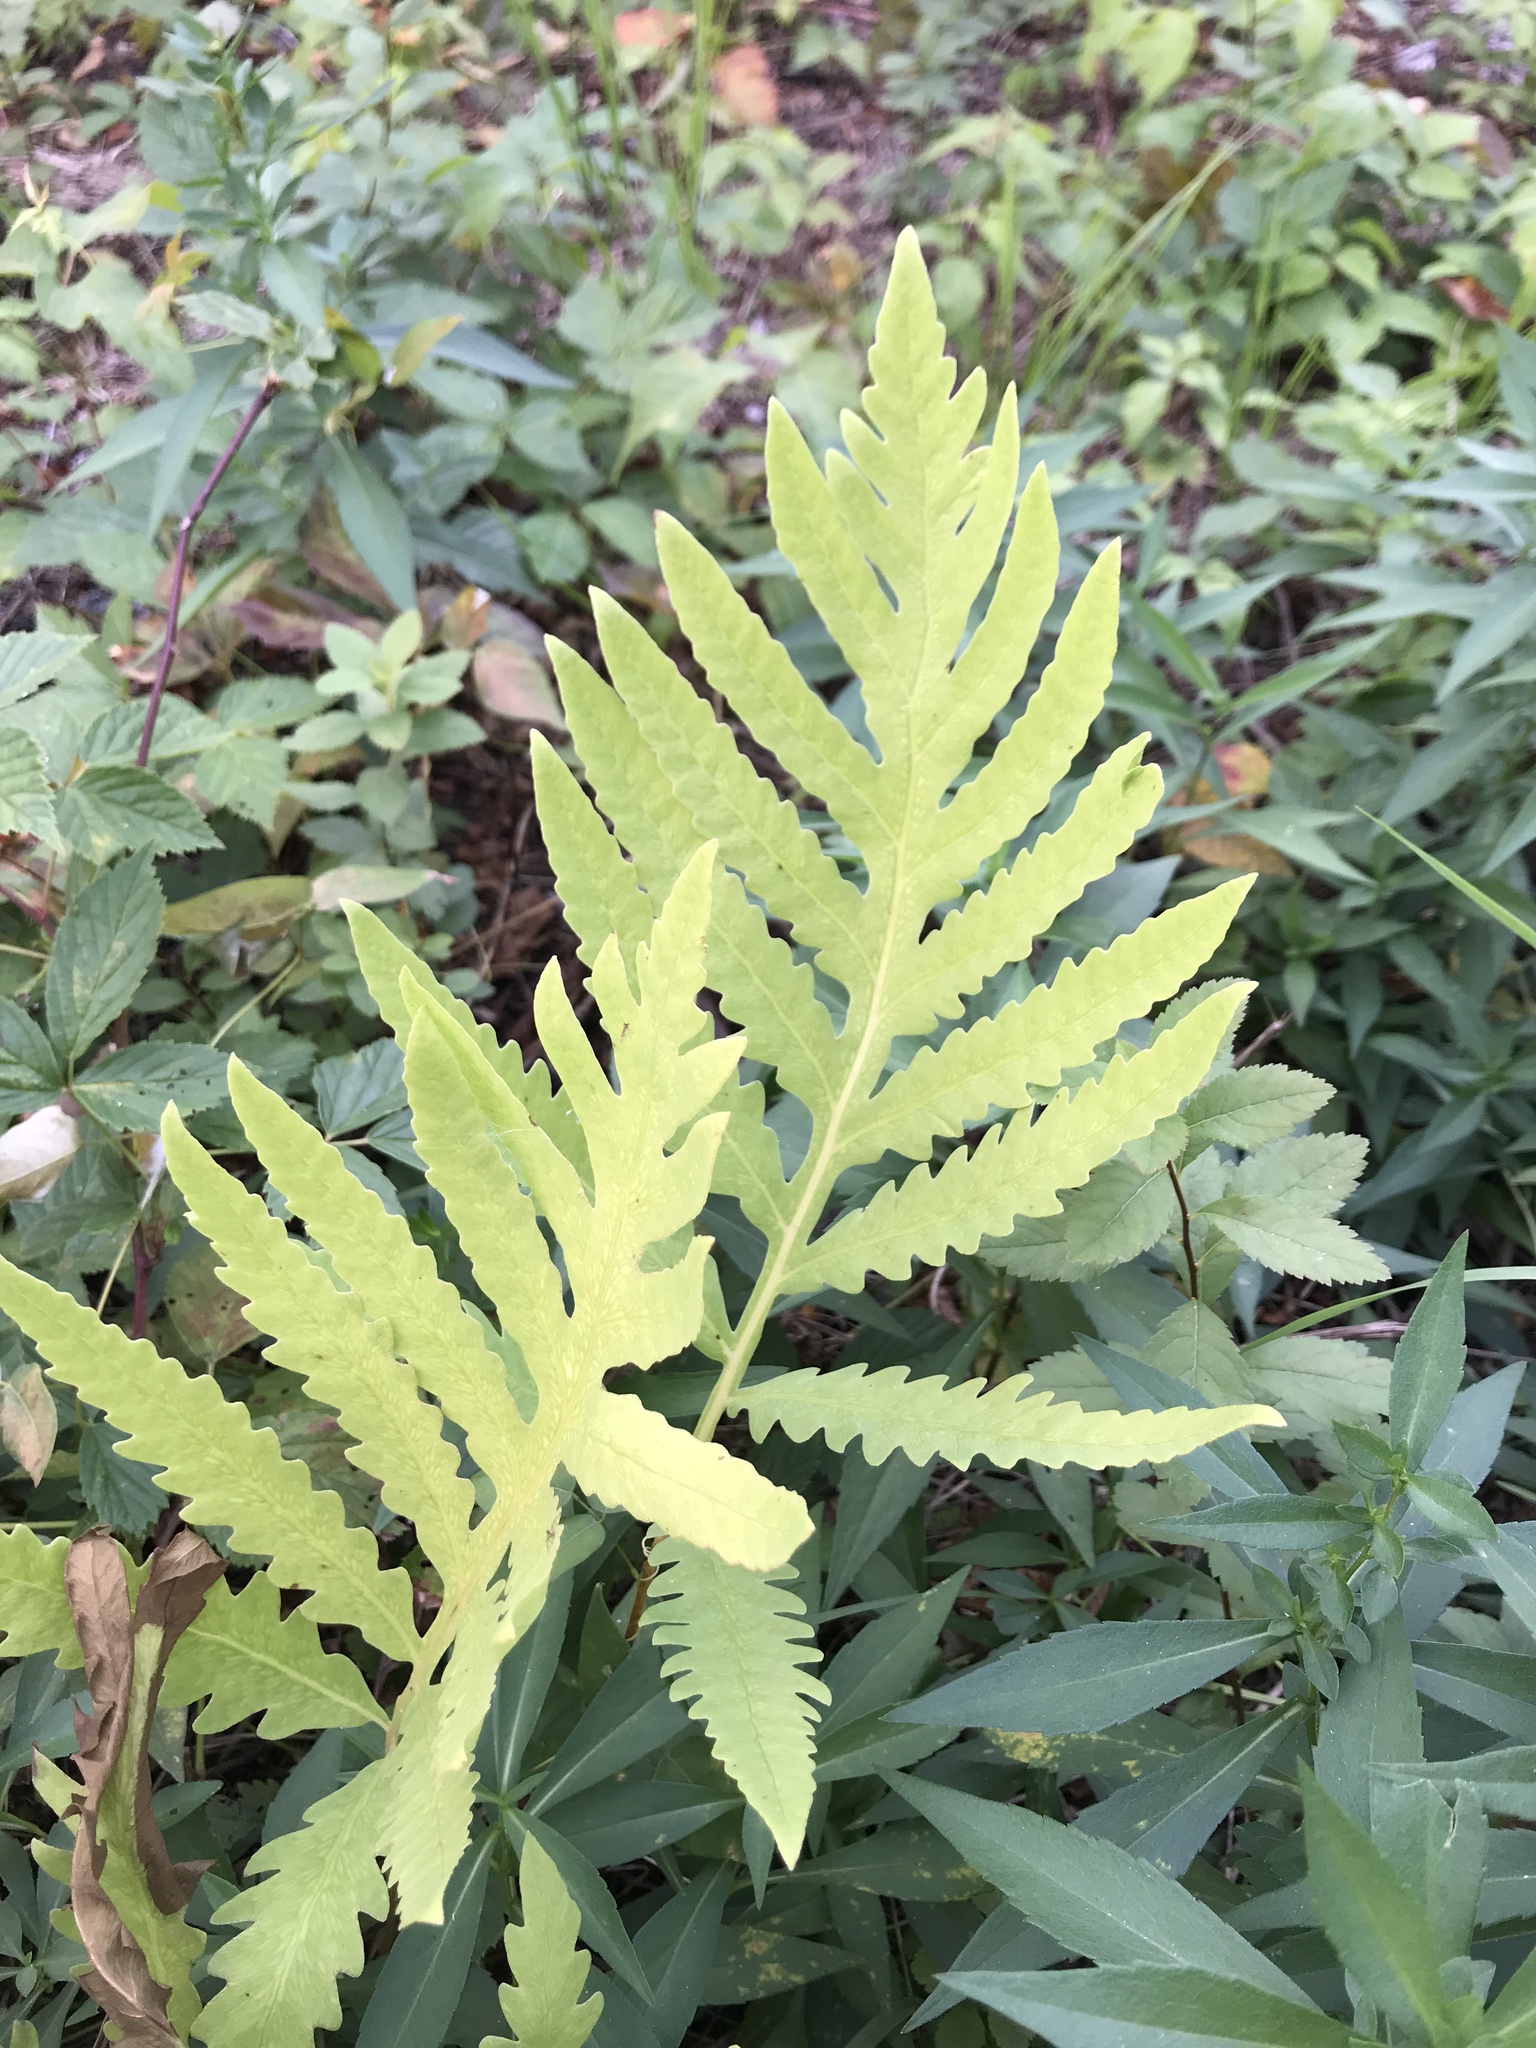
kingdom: Plantae
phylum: Tracheophyta
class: Polypodiopsida
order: Polypodiales
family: Onocleaceae
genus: Onoclea
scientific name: Onoclea sensibilis
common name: Sensitive fern
